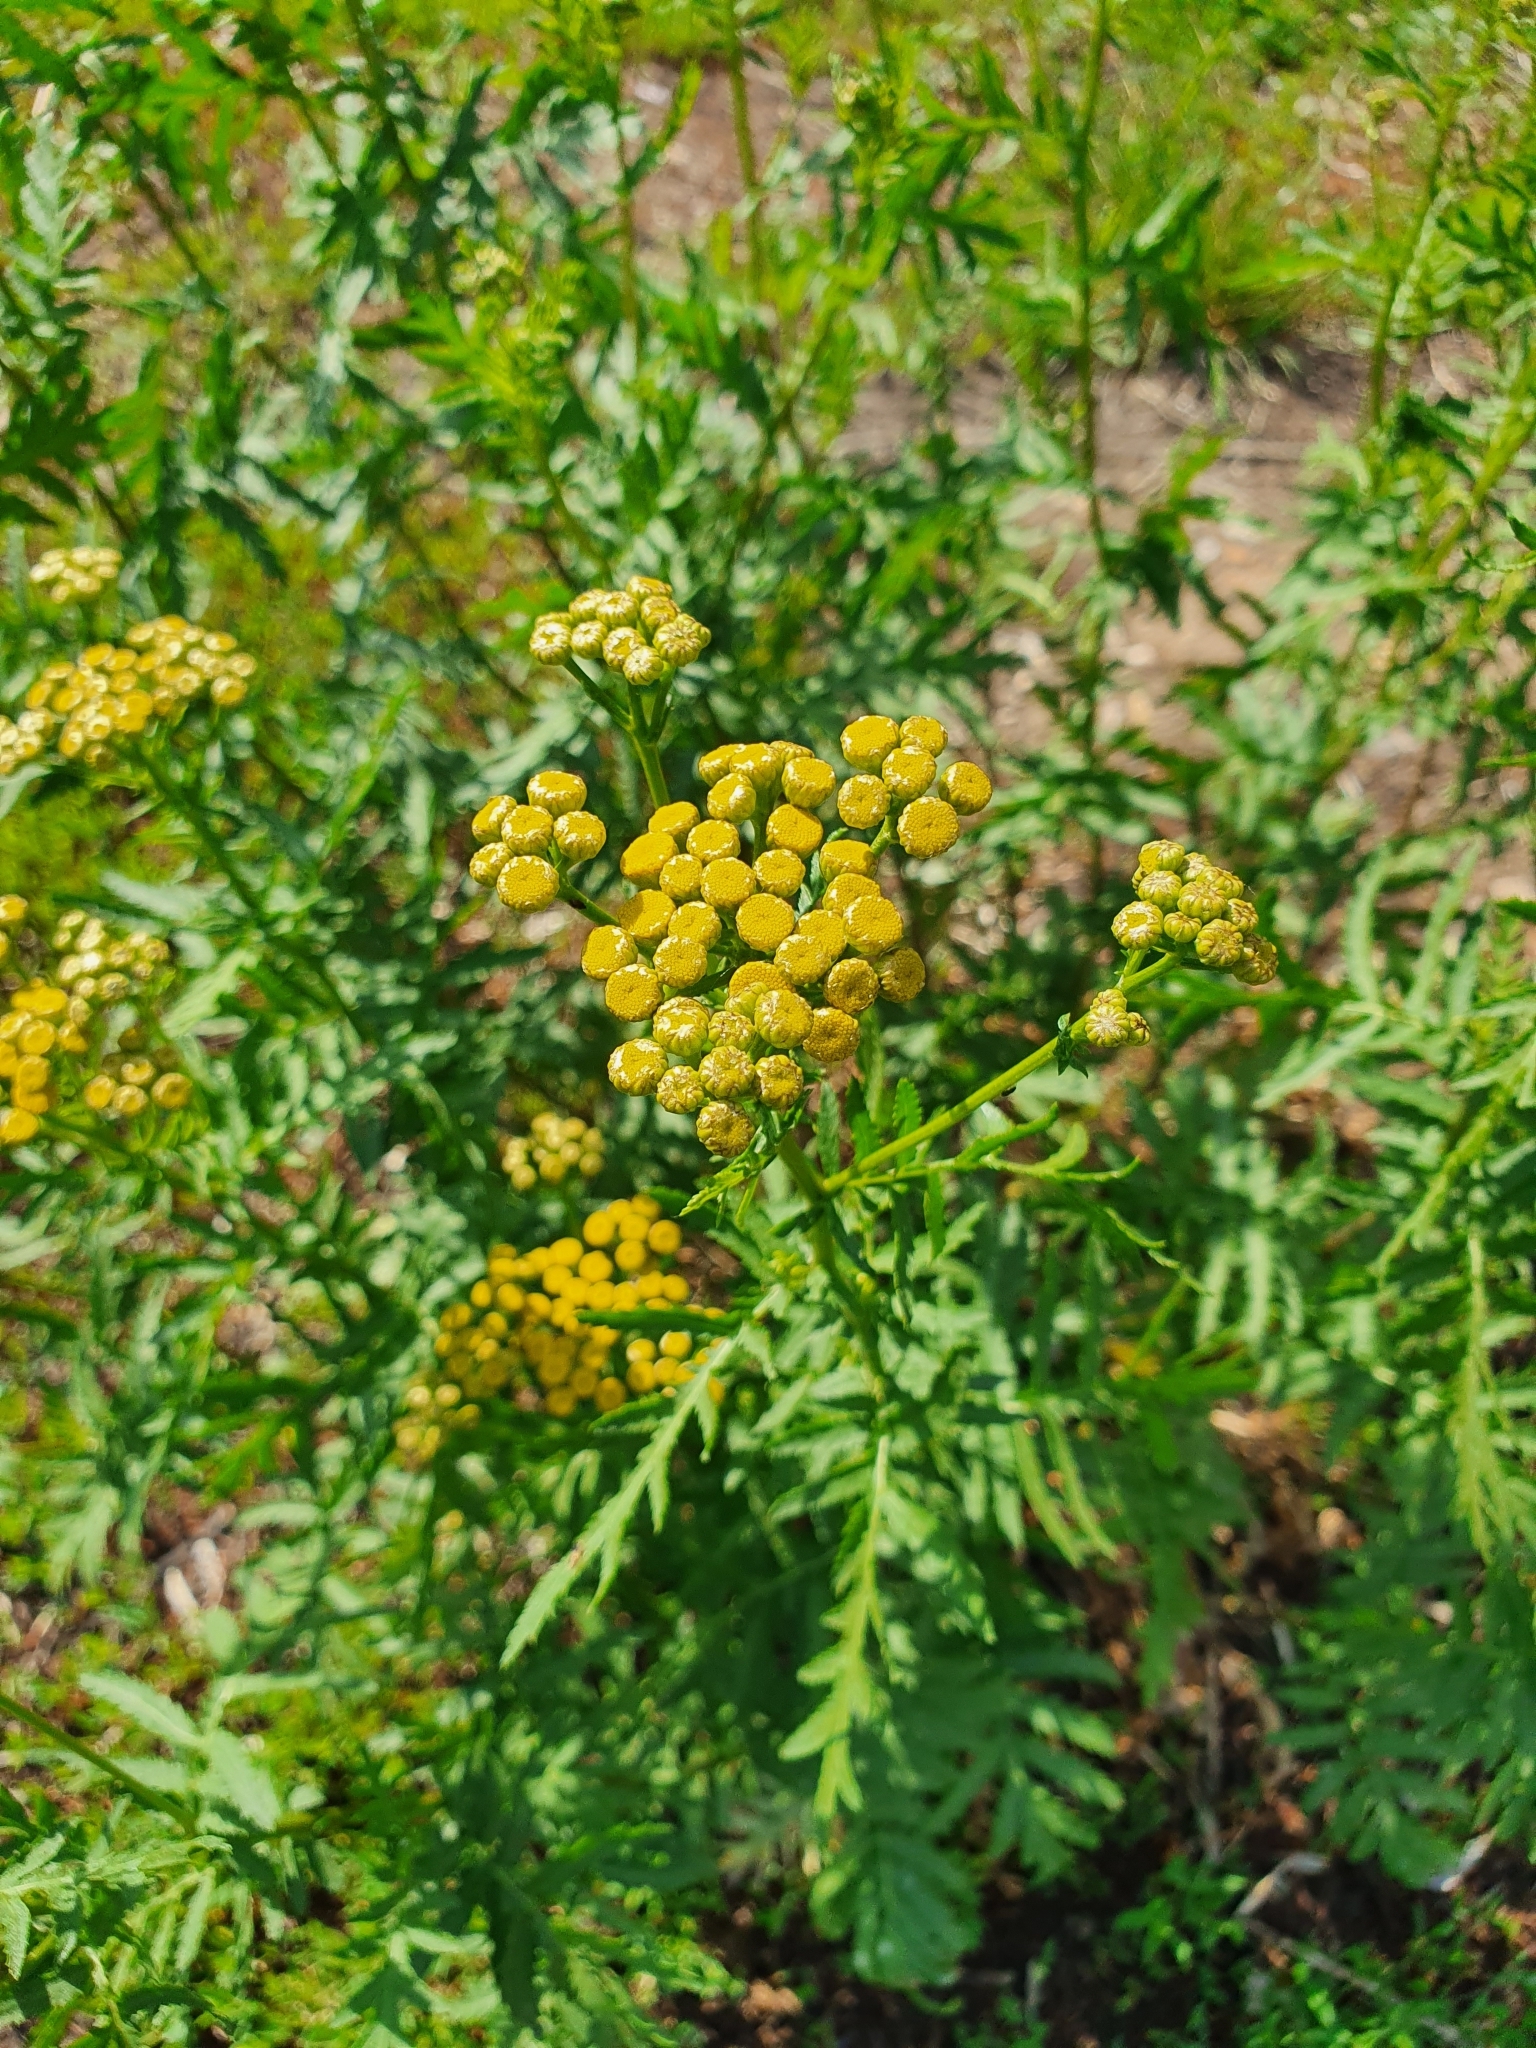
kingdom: Plantae
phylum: Tracheophyta
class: Magnoliopsida
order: Asterales
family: Asteraceae
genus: Tanacetum
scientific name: Tanacetum vulgare
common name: Common tansy
